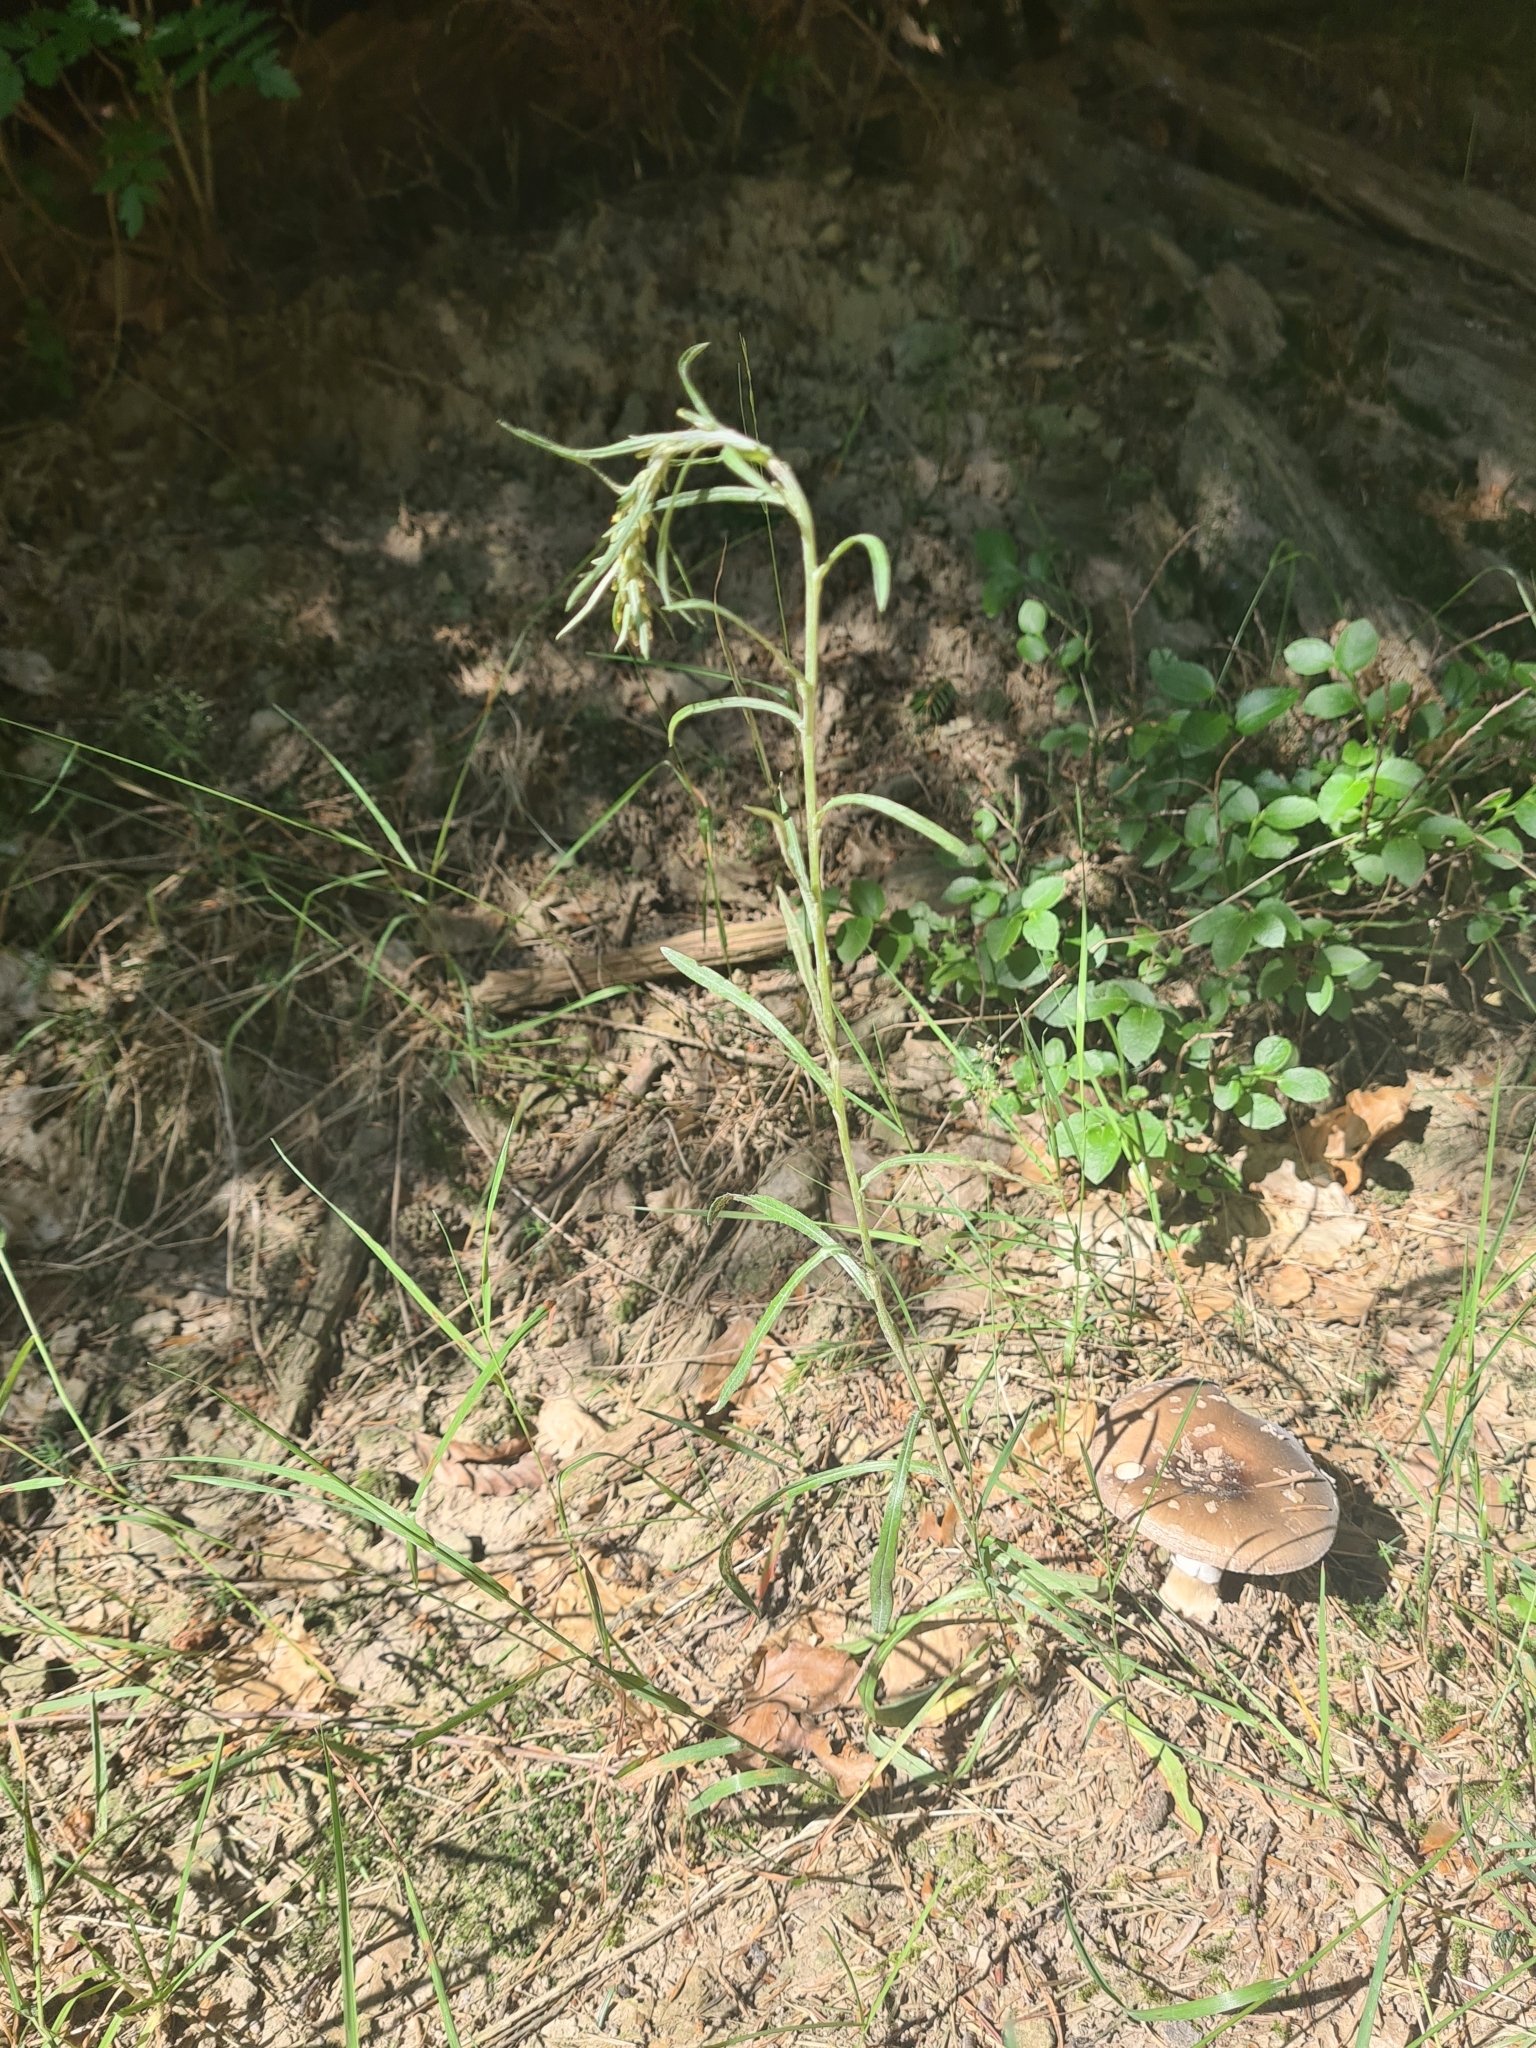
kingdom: Plantae
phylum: Tracheophyta
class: Magnoliopsida
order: Asterales
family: Asteraceae
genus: Omalotheca
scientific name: Omalotheca sylvatica
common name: Heath cudweed
